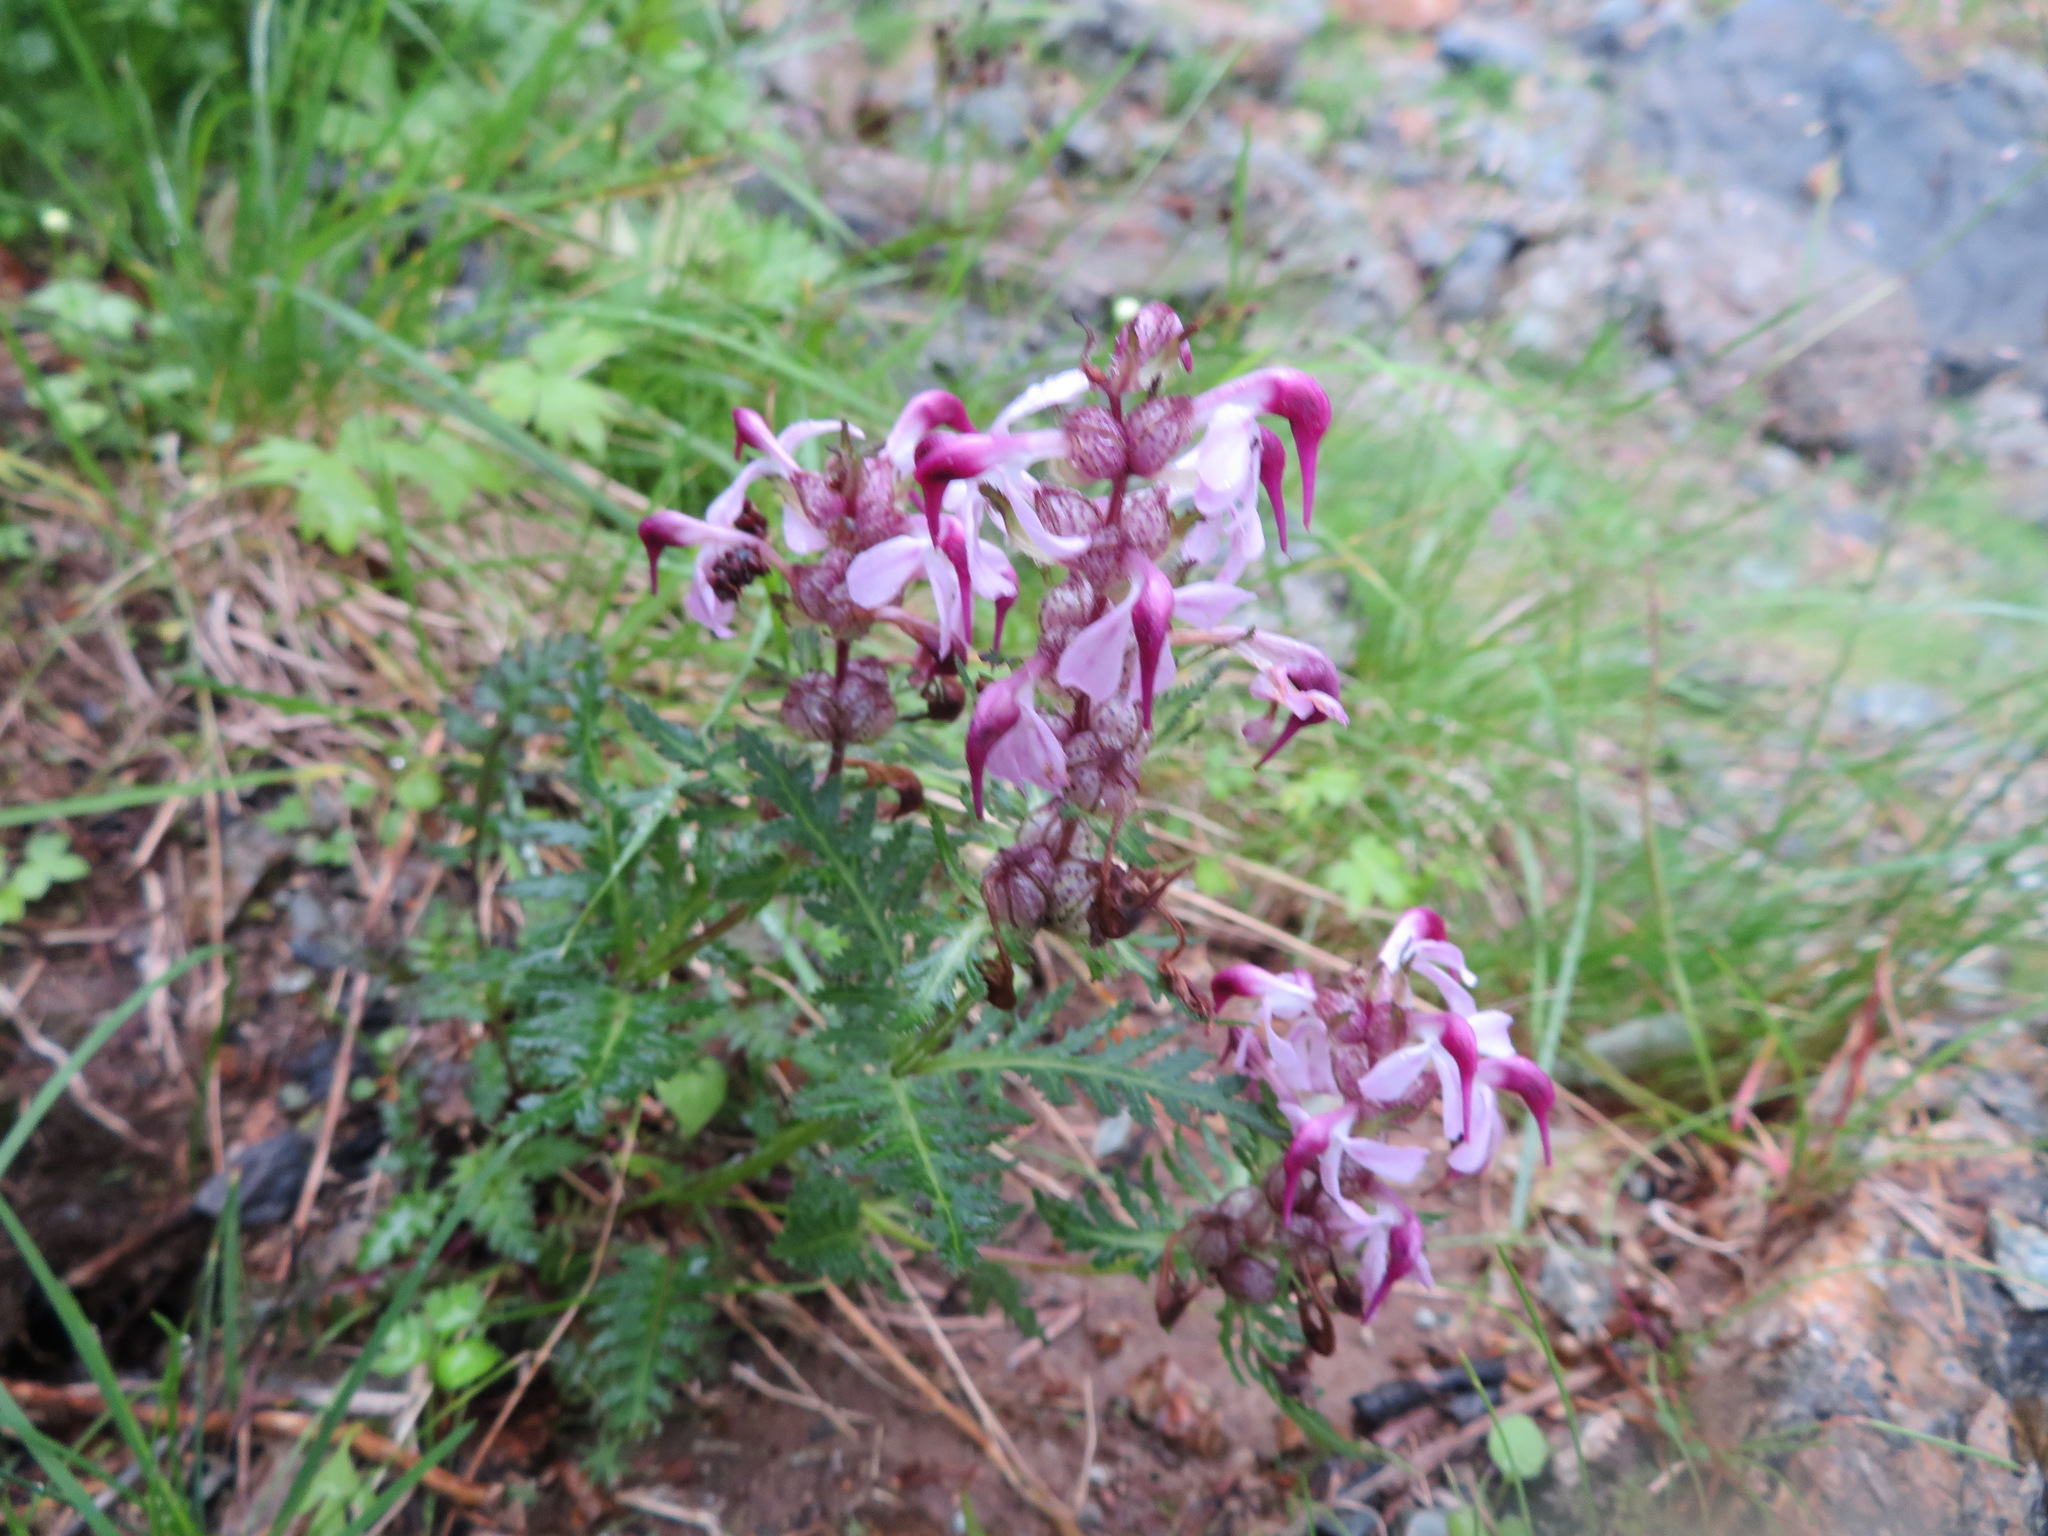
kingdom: Plantae
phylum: Tracheophyta
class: Magnoliopsida
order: Lamiales
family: Orobanchaceae
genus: Pedicularis
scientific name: Pedicularis chamissonis
